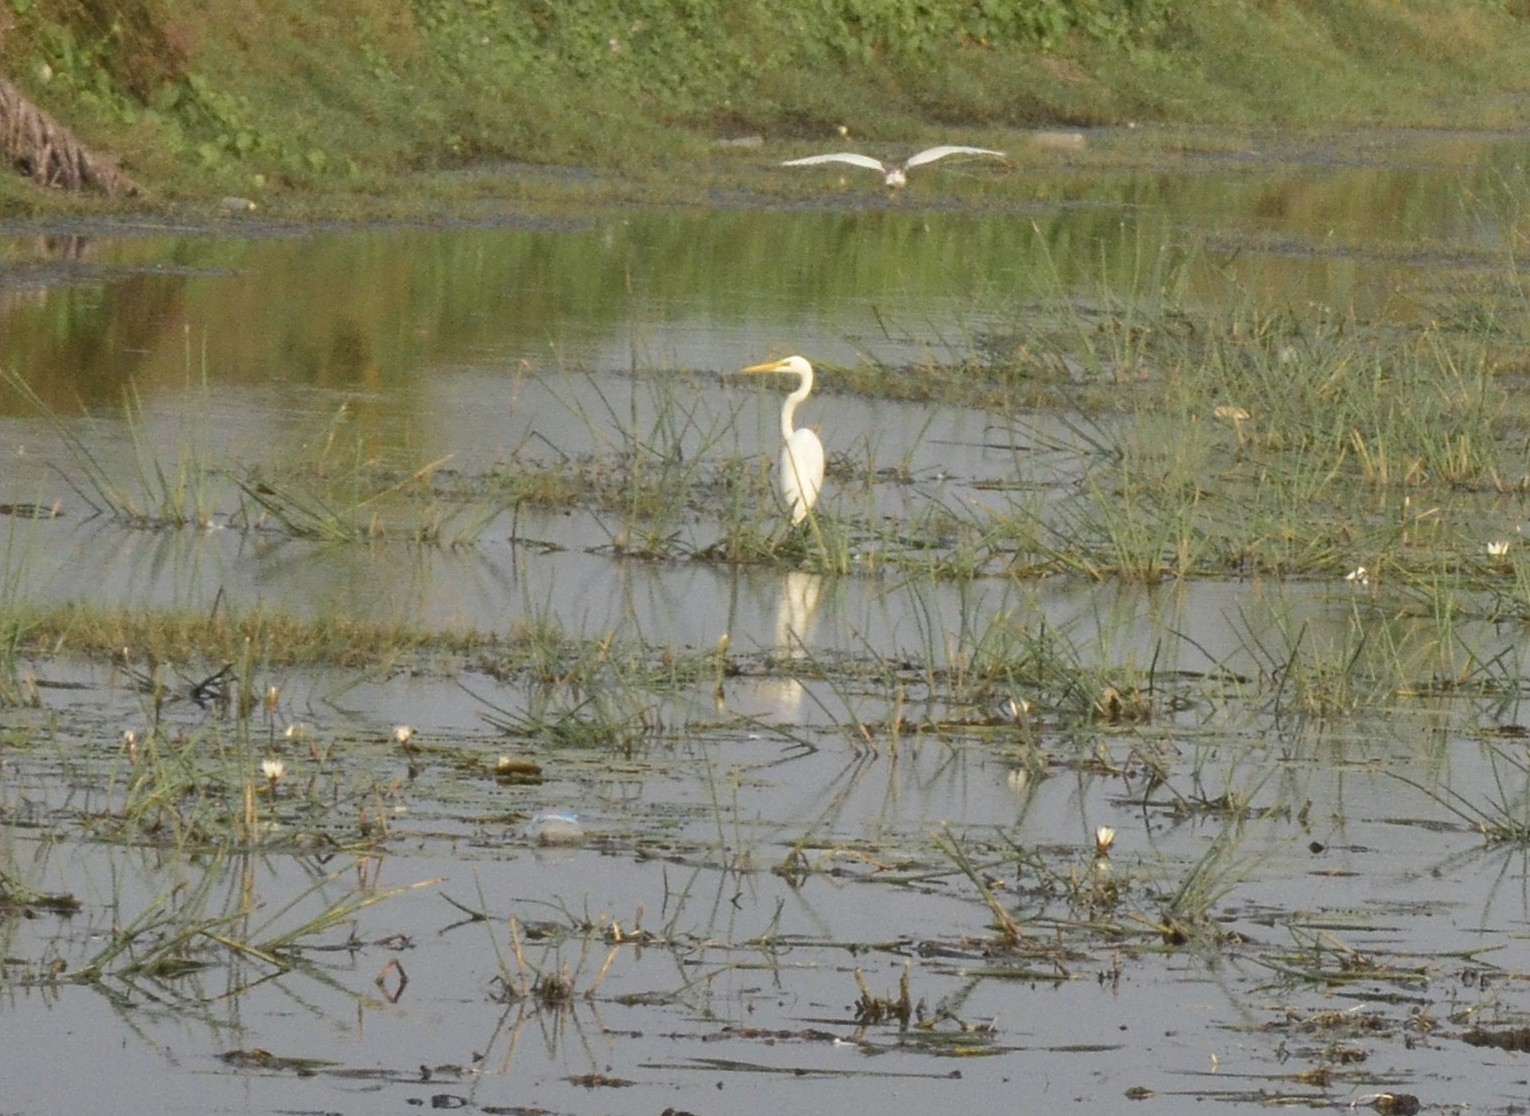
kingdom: Animalia
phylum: Chordata
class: Aves
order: Pelecaniformes
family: Ardeidae
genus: Ardea
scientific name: Ardea alba
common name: Great egret
